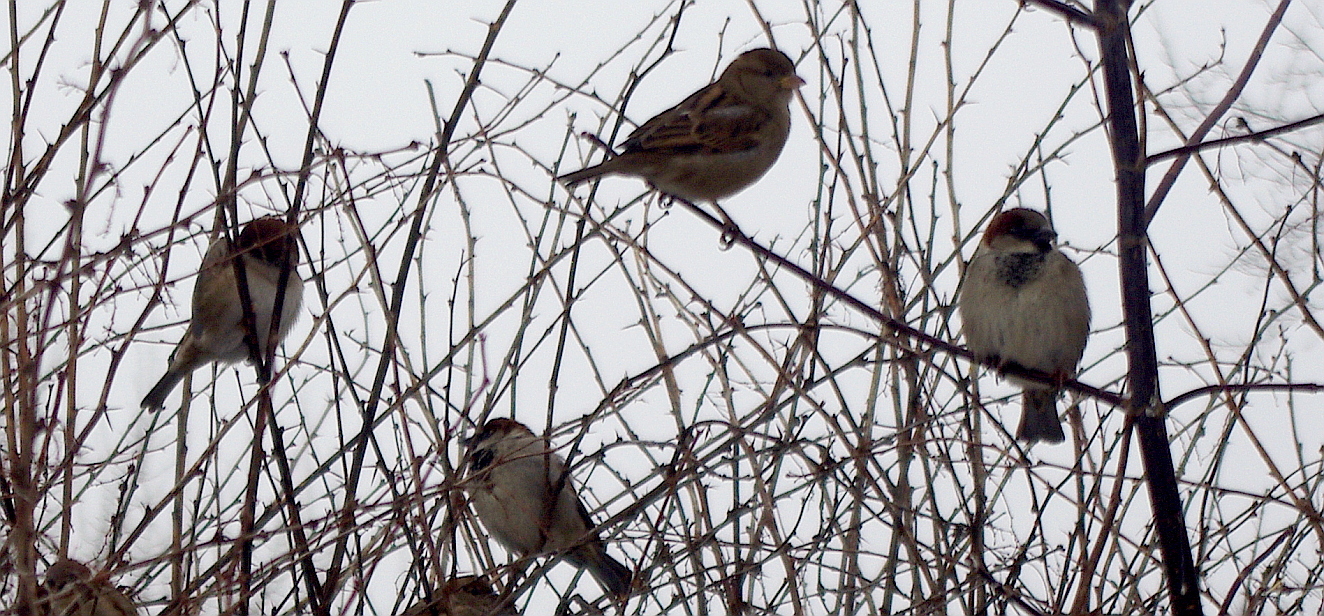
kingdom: Animalia
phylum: Chordata
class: Aves
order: Passeriformes
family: Passeridae
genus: Passer
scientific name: Passer domesticus
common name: House sparrow
